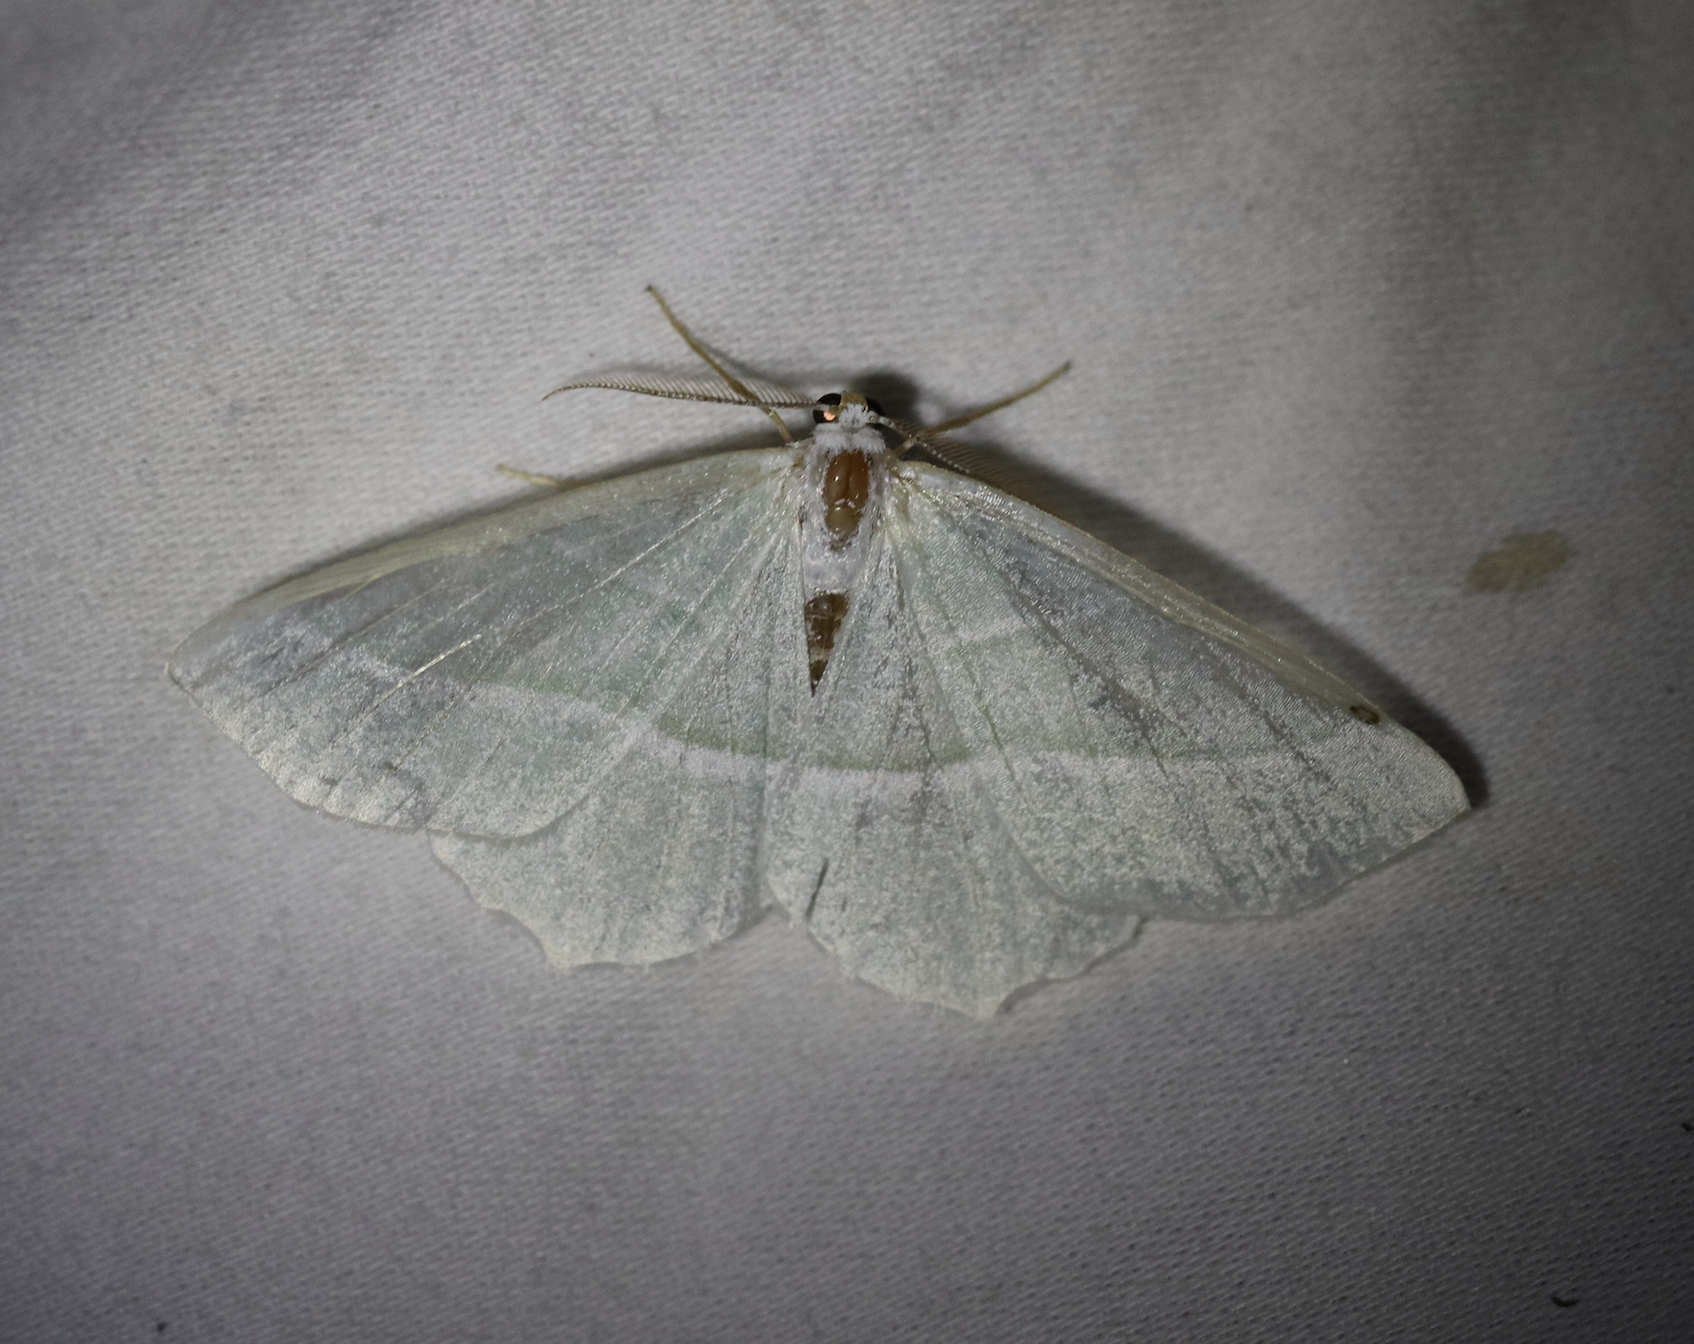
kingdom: Animalia
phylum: Arthropoda
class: Insecta
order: Lepidoptera
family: Geometridae
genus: Campaea
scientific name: Campaea margaritaria
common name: Light emerald
